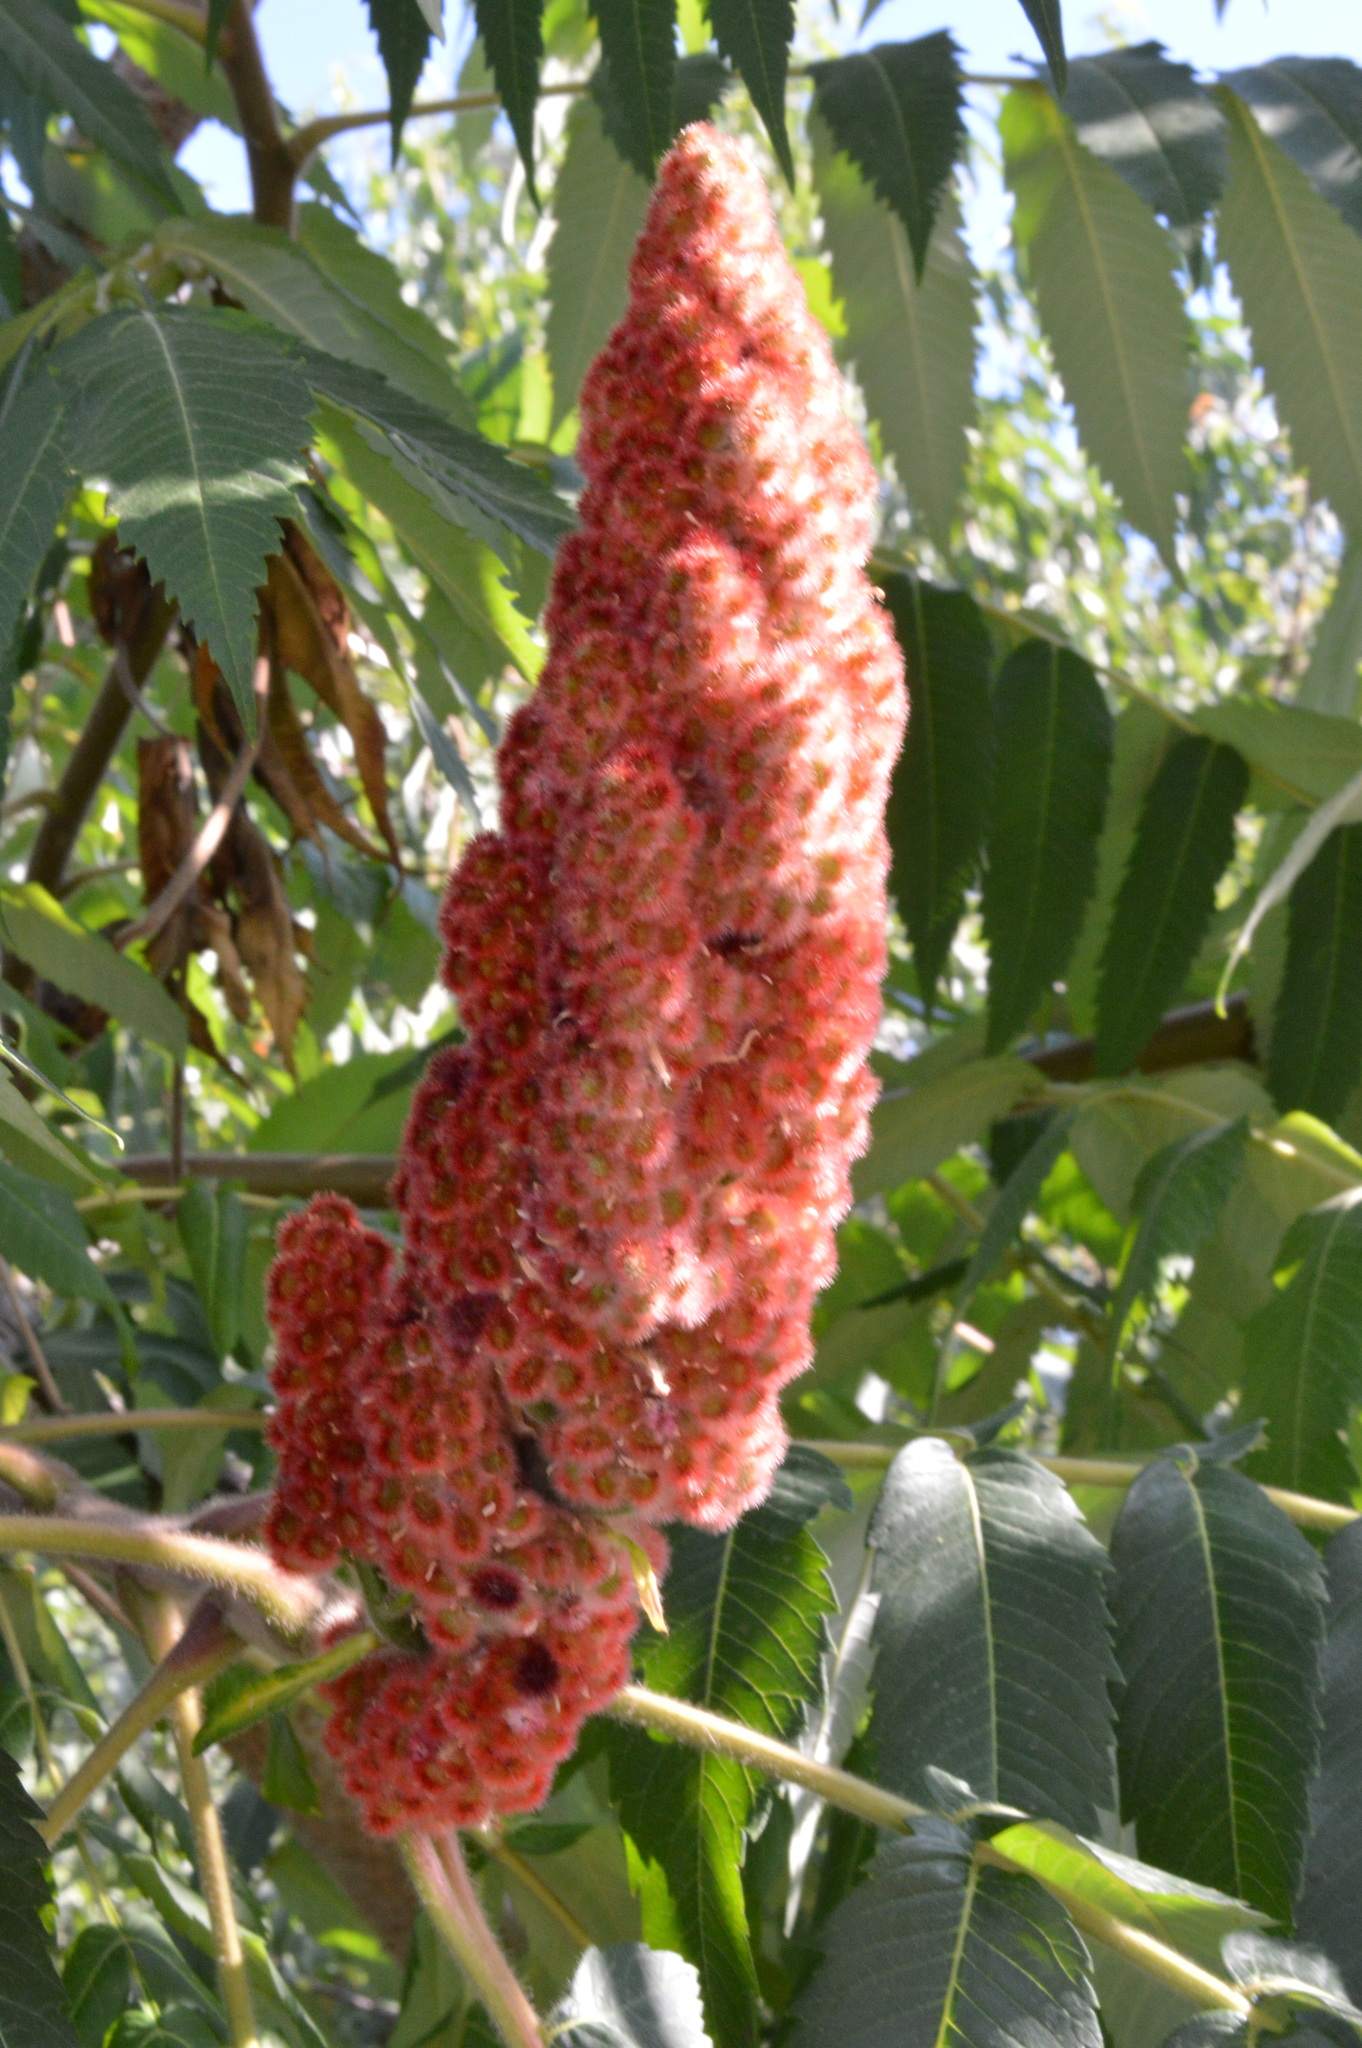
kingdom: Plantae
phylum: Tracheophyta
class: Magnoliopsida
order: Sapindales
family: Anacardiaceae
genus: Rhus
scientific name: Rhus typhina
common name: Staghorn sumac
